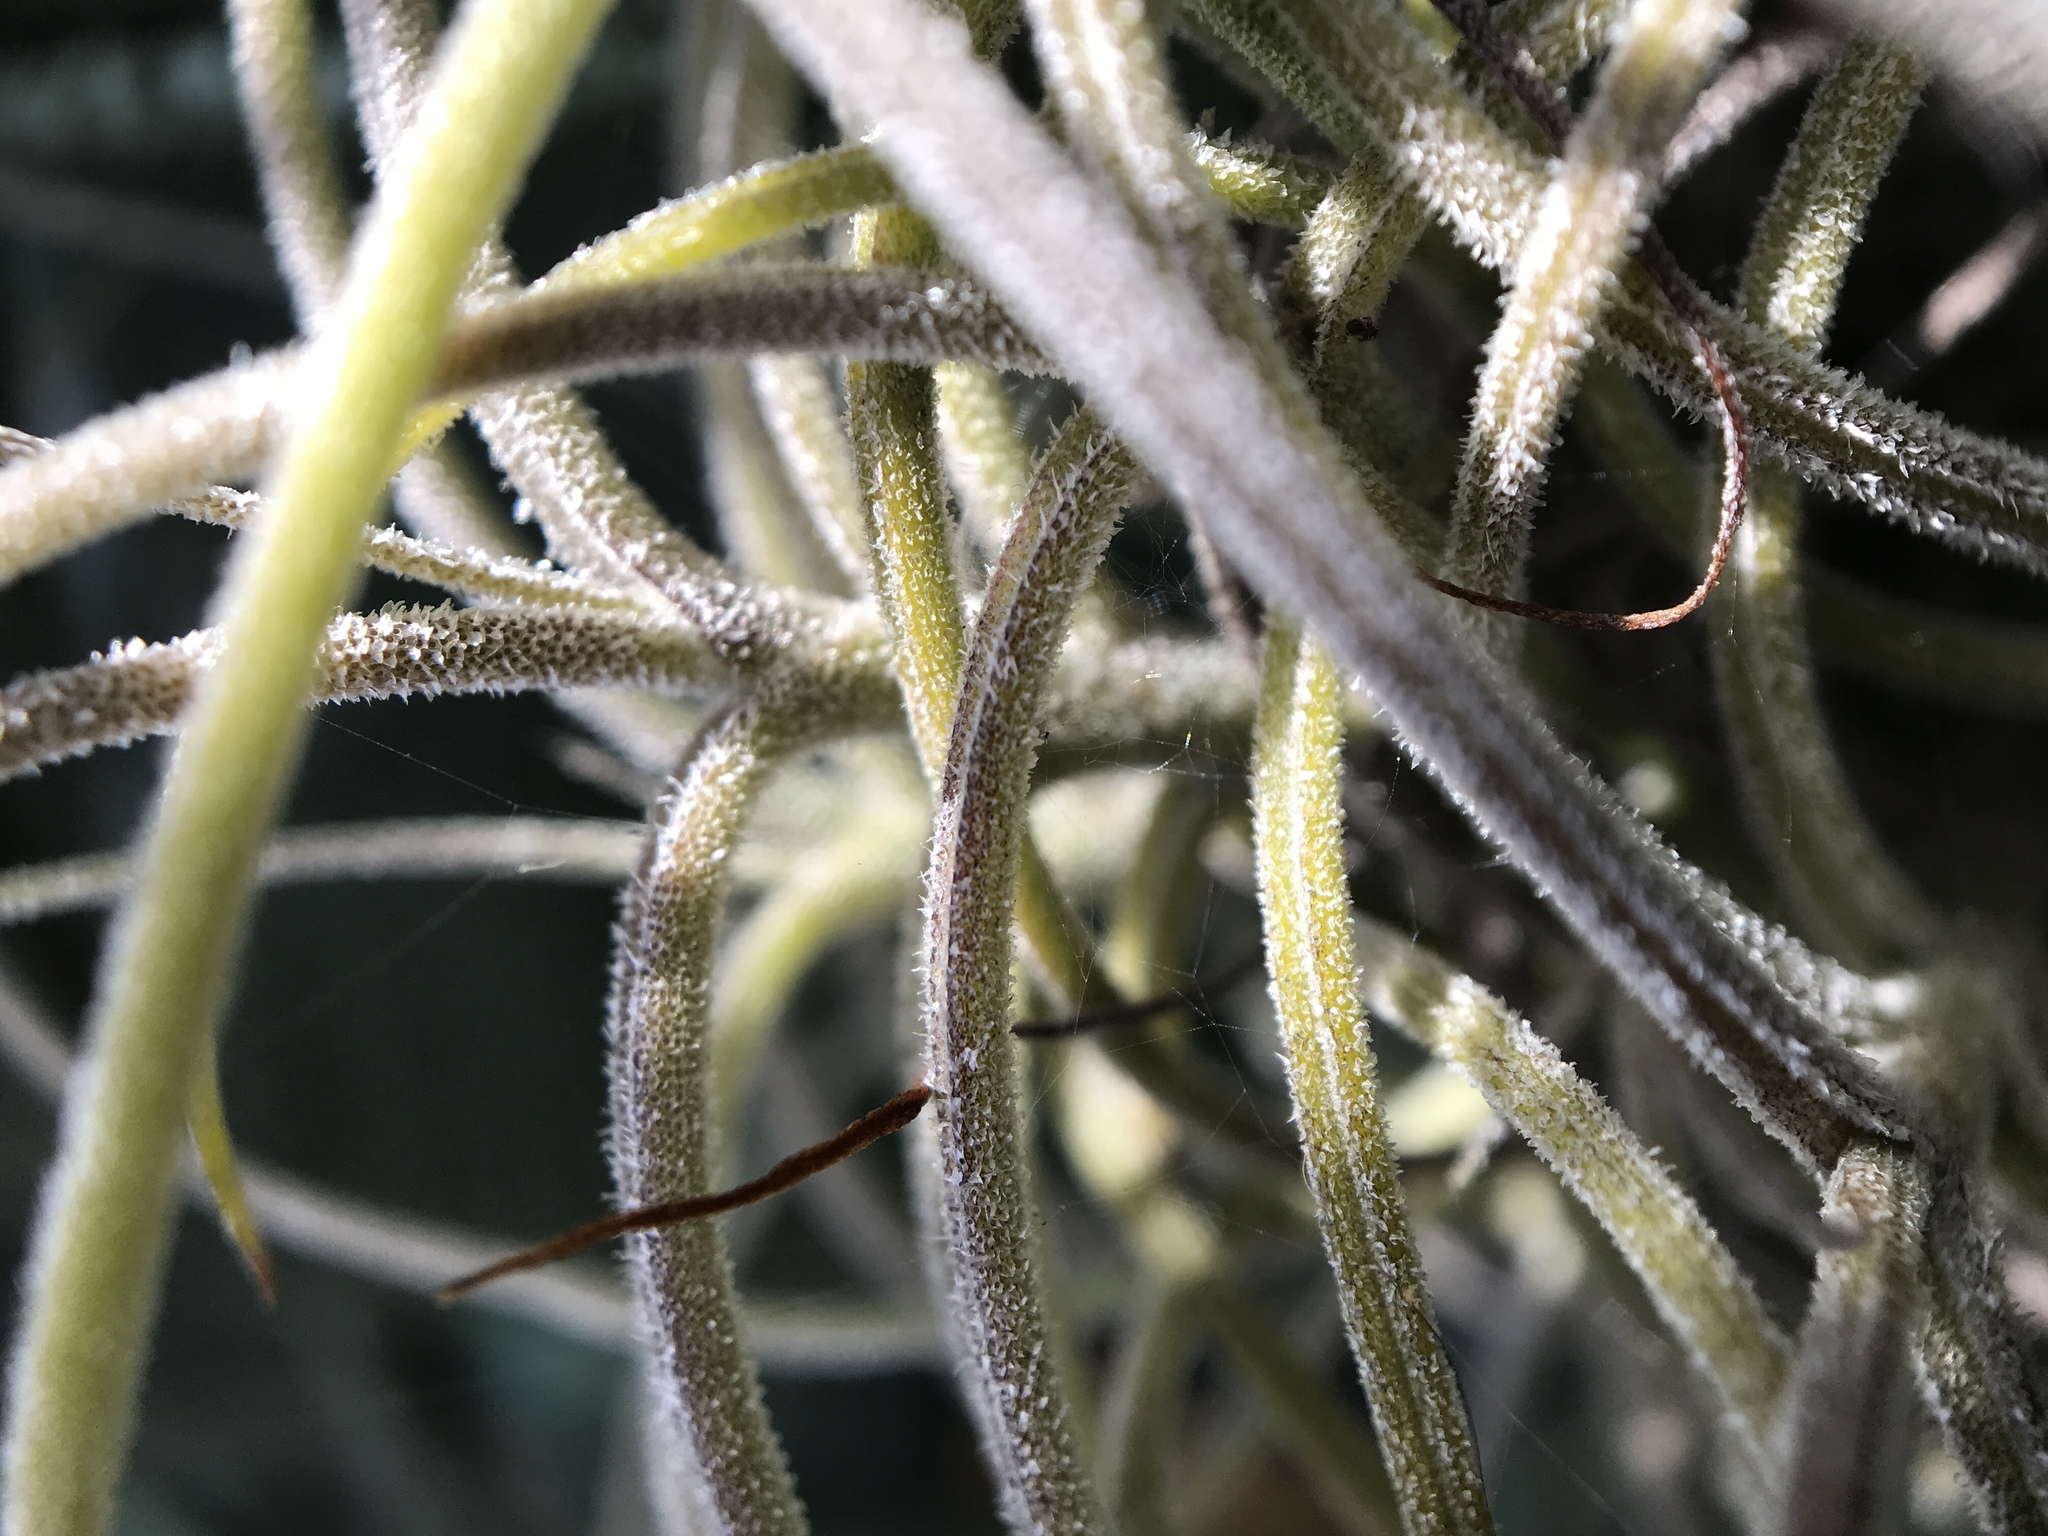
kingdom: Plantae
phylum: Tracheophyta
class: Liliopsida
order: Poales
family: Bromeliaceae
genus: Tillandsia
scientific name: Tillandsia recurvata
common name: Small ballmoss
